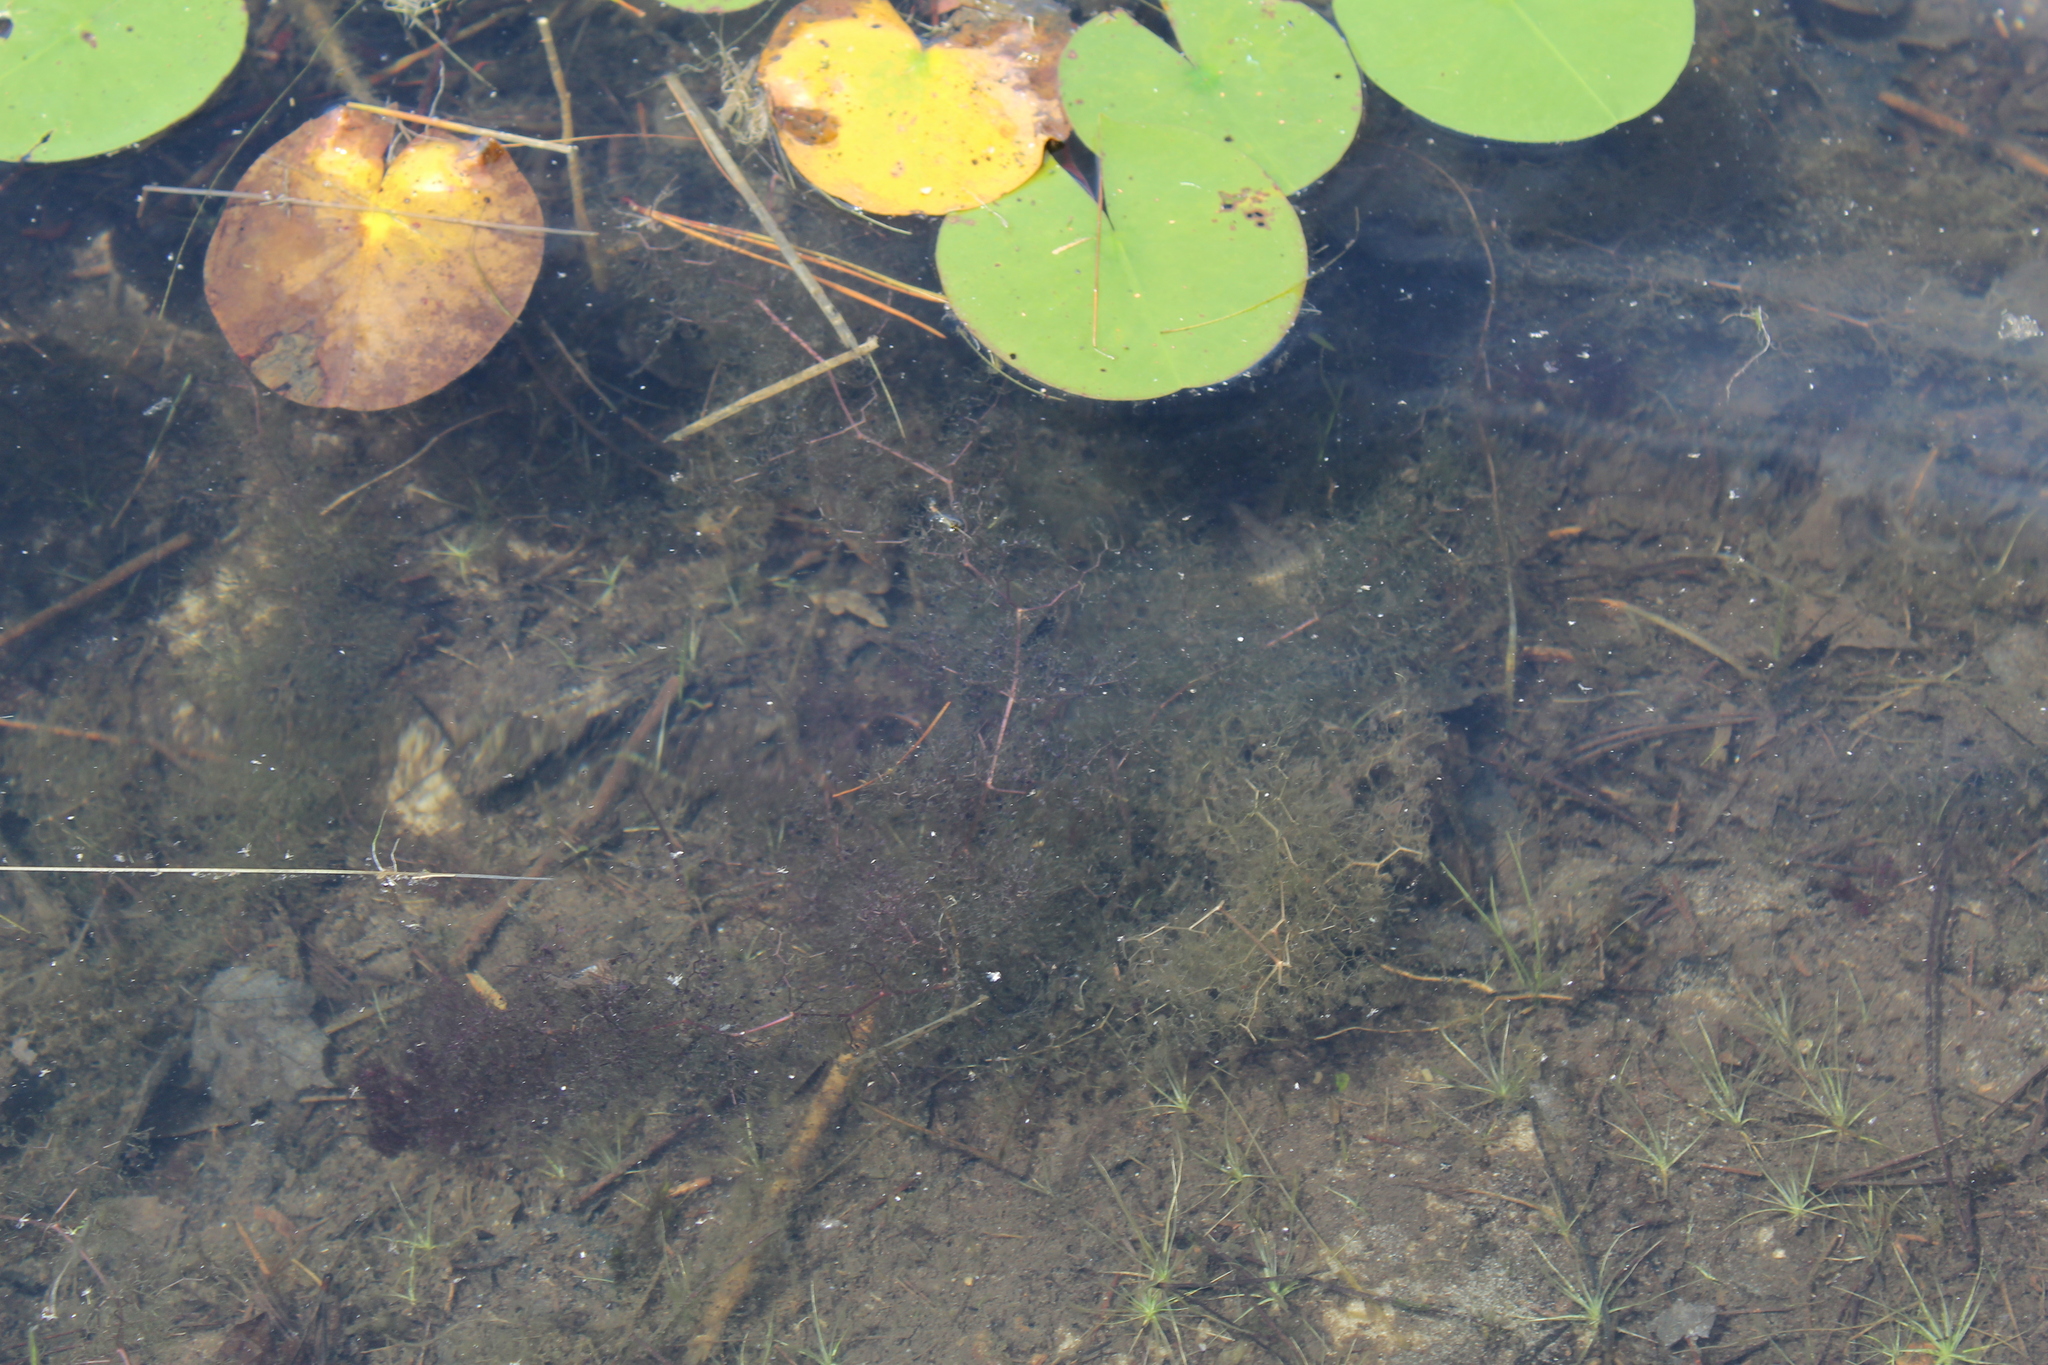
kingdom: Plantae
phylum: Tracheophyta
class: Magnoliopsida
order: Lamiales
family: Lentibulariaceae
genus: Utricularia
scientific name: Utricularia inflata
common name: Floating bladderwort
